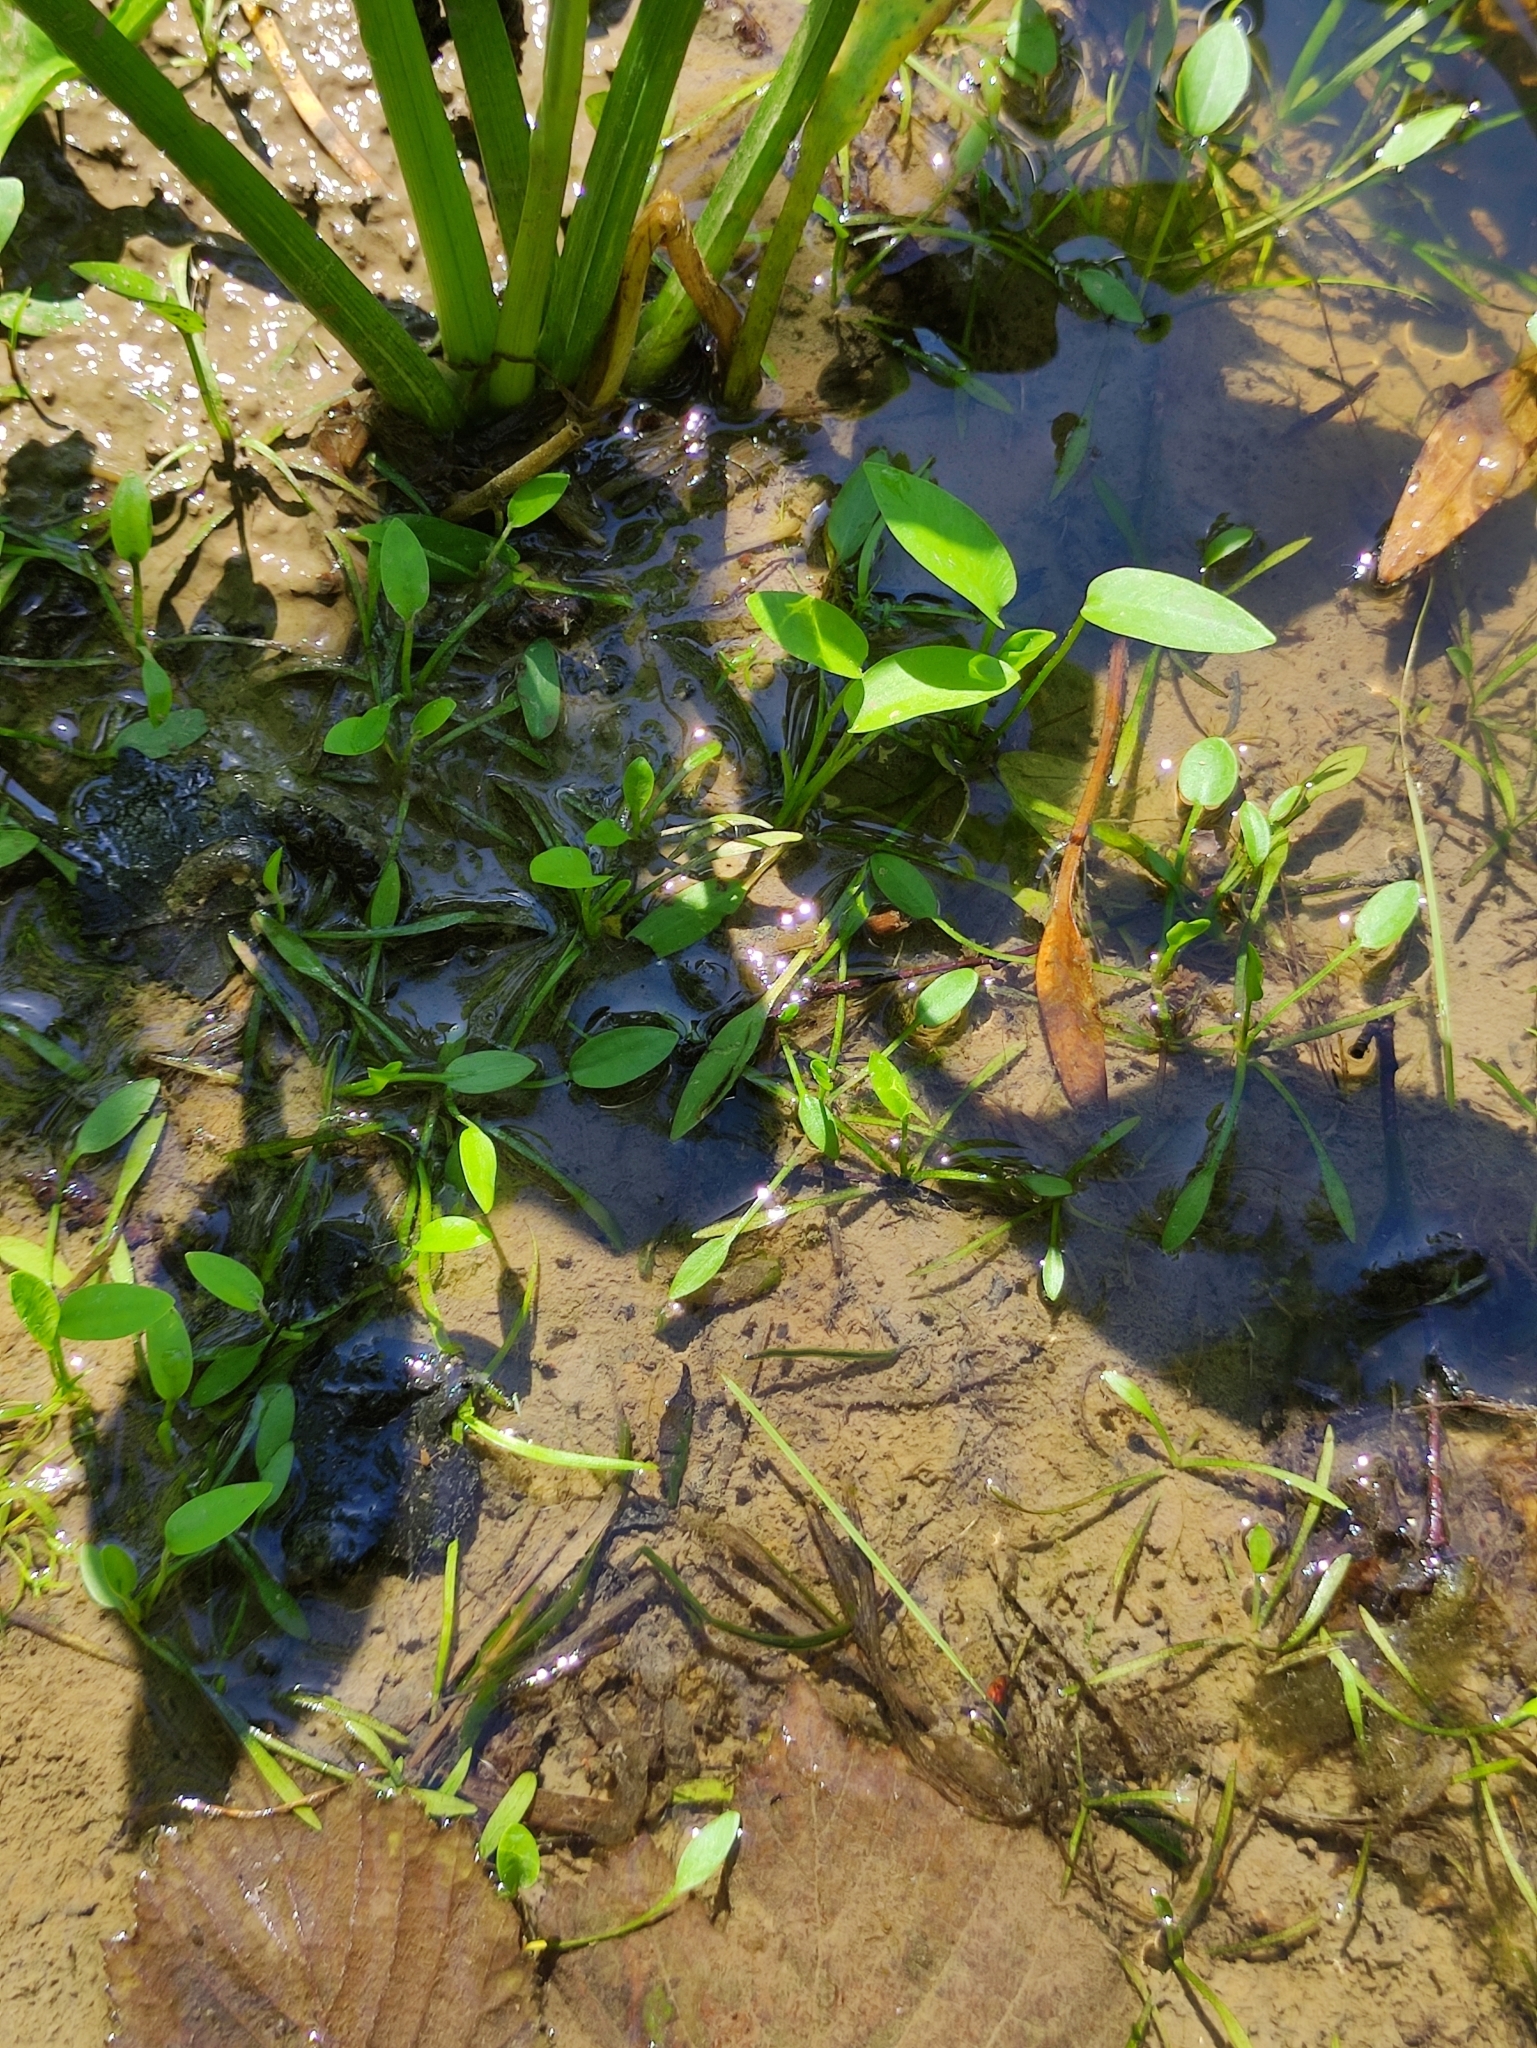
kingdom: Plantae
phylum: Tracheophyta
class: Liliopsida
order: Alismatales
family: Alismataceae
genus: Alisma
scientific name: Alisma plantago-aquatica
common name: Water-plantain
